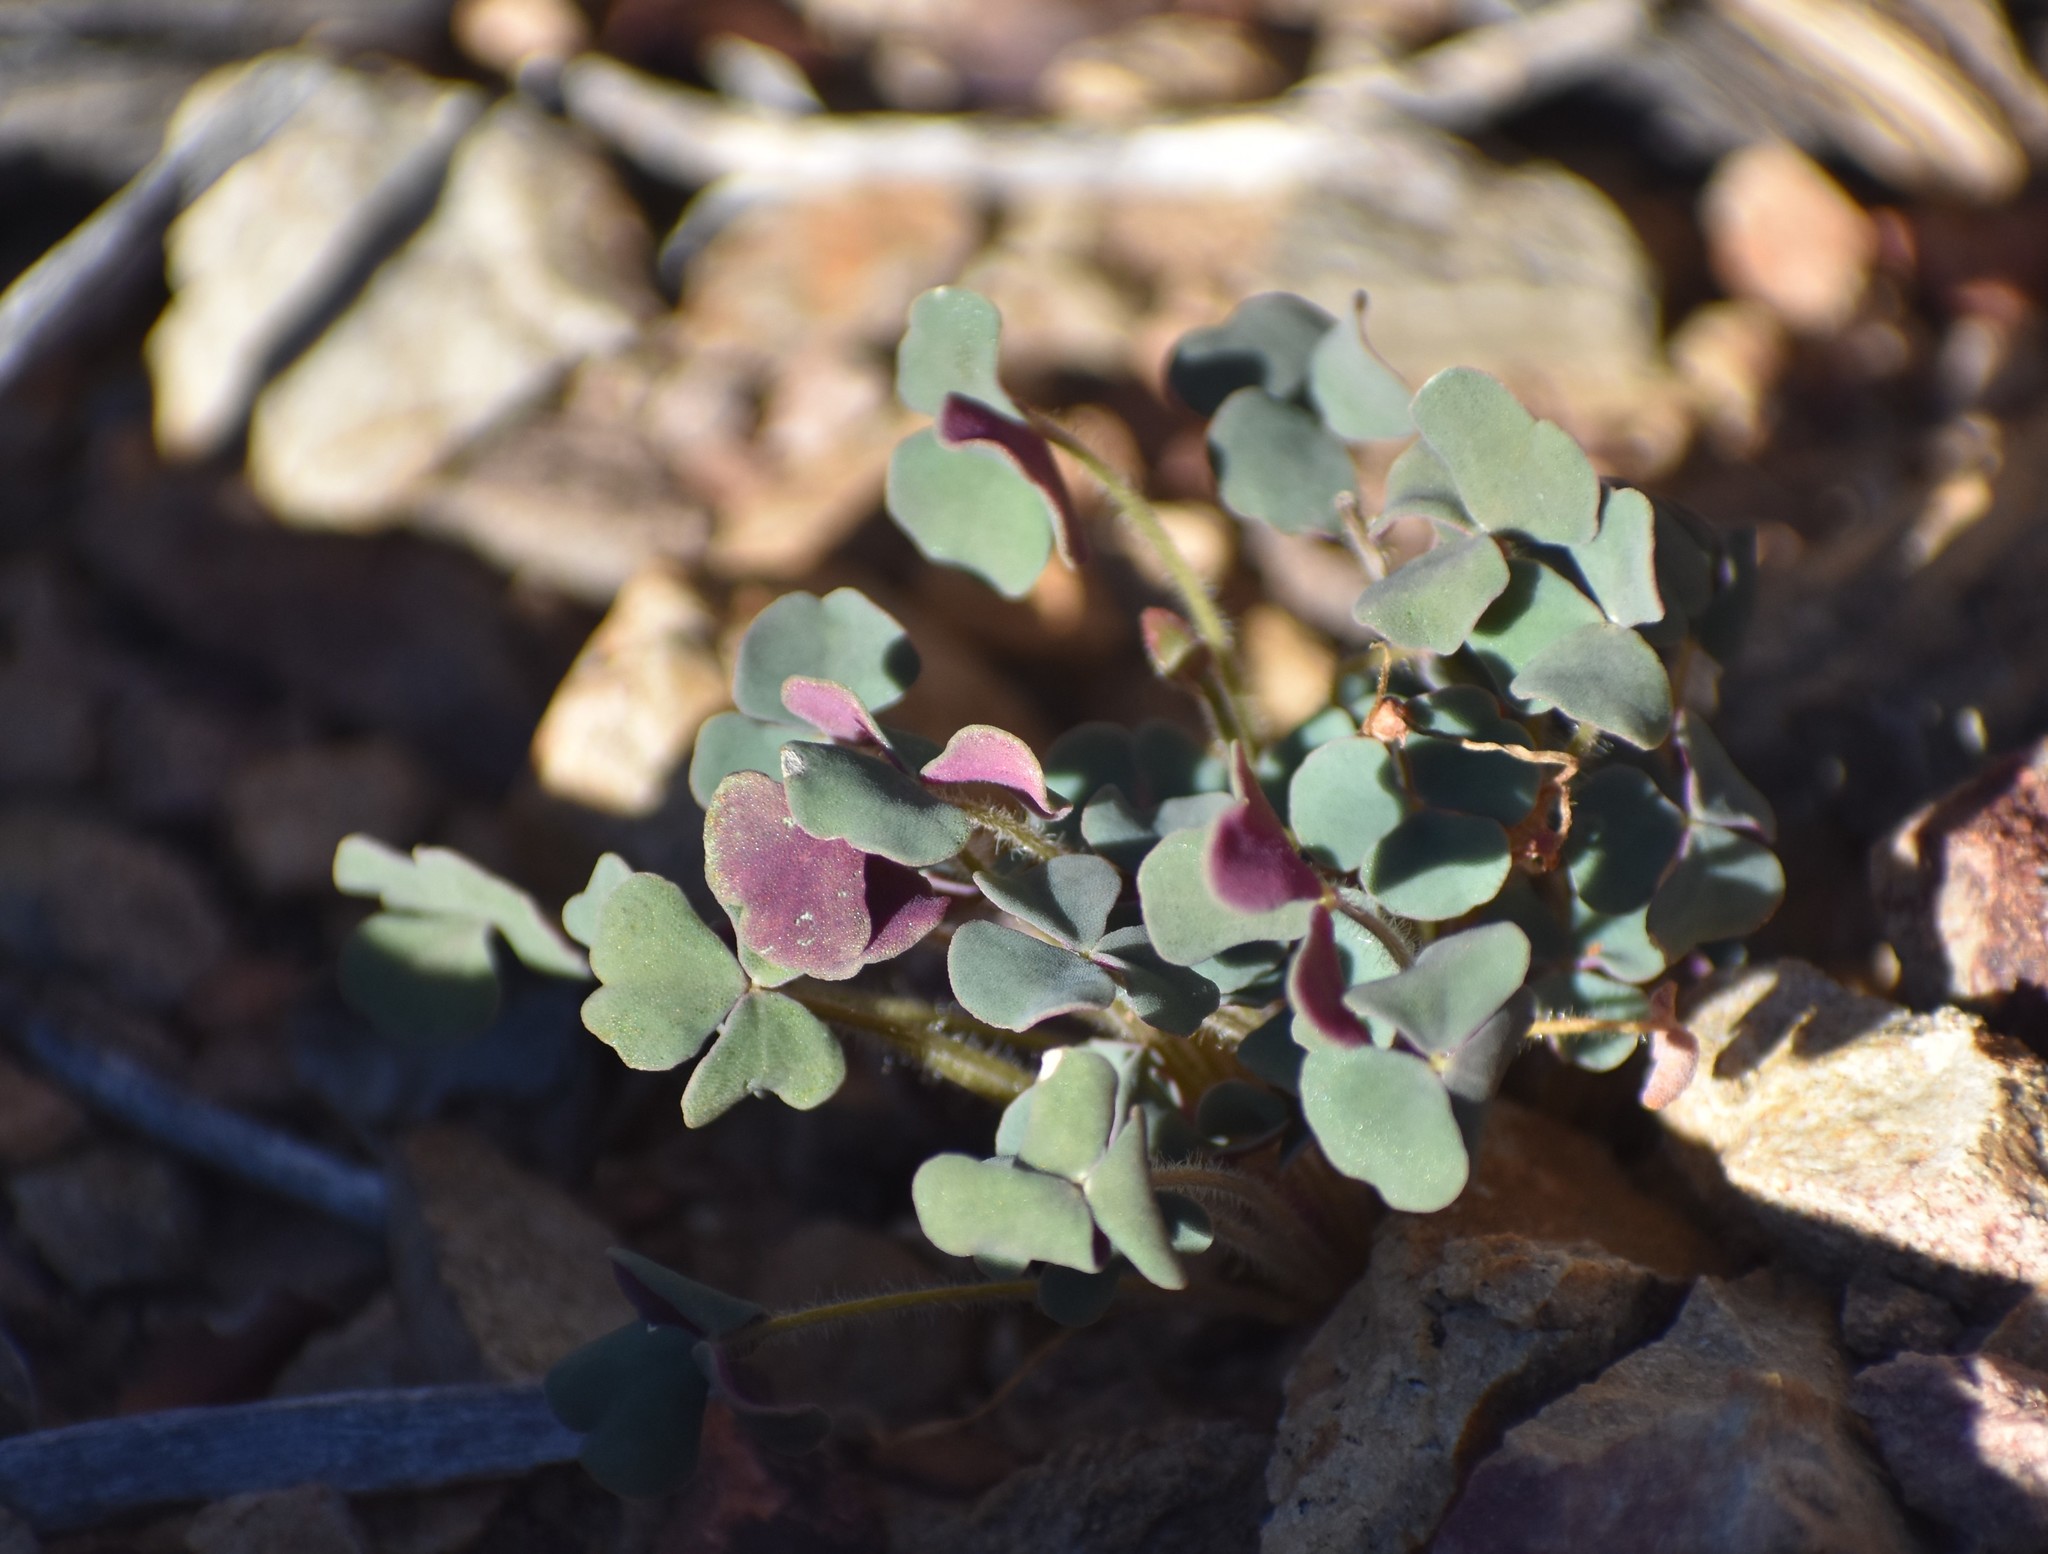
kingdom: Plantae
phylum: Tracheophyta
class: Magnoliopsida
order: Oxalidales
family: Oxalidaceae
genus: Oxalis
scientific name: Oxalis punctata
